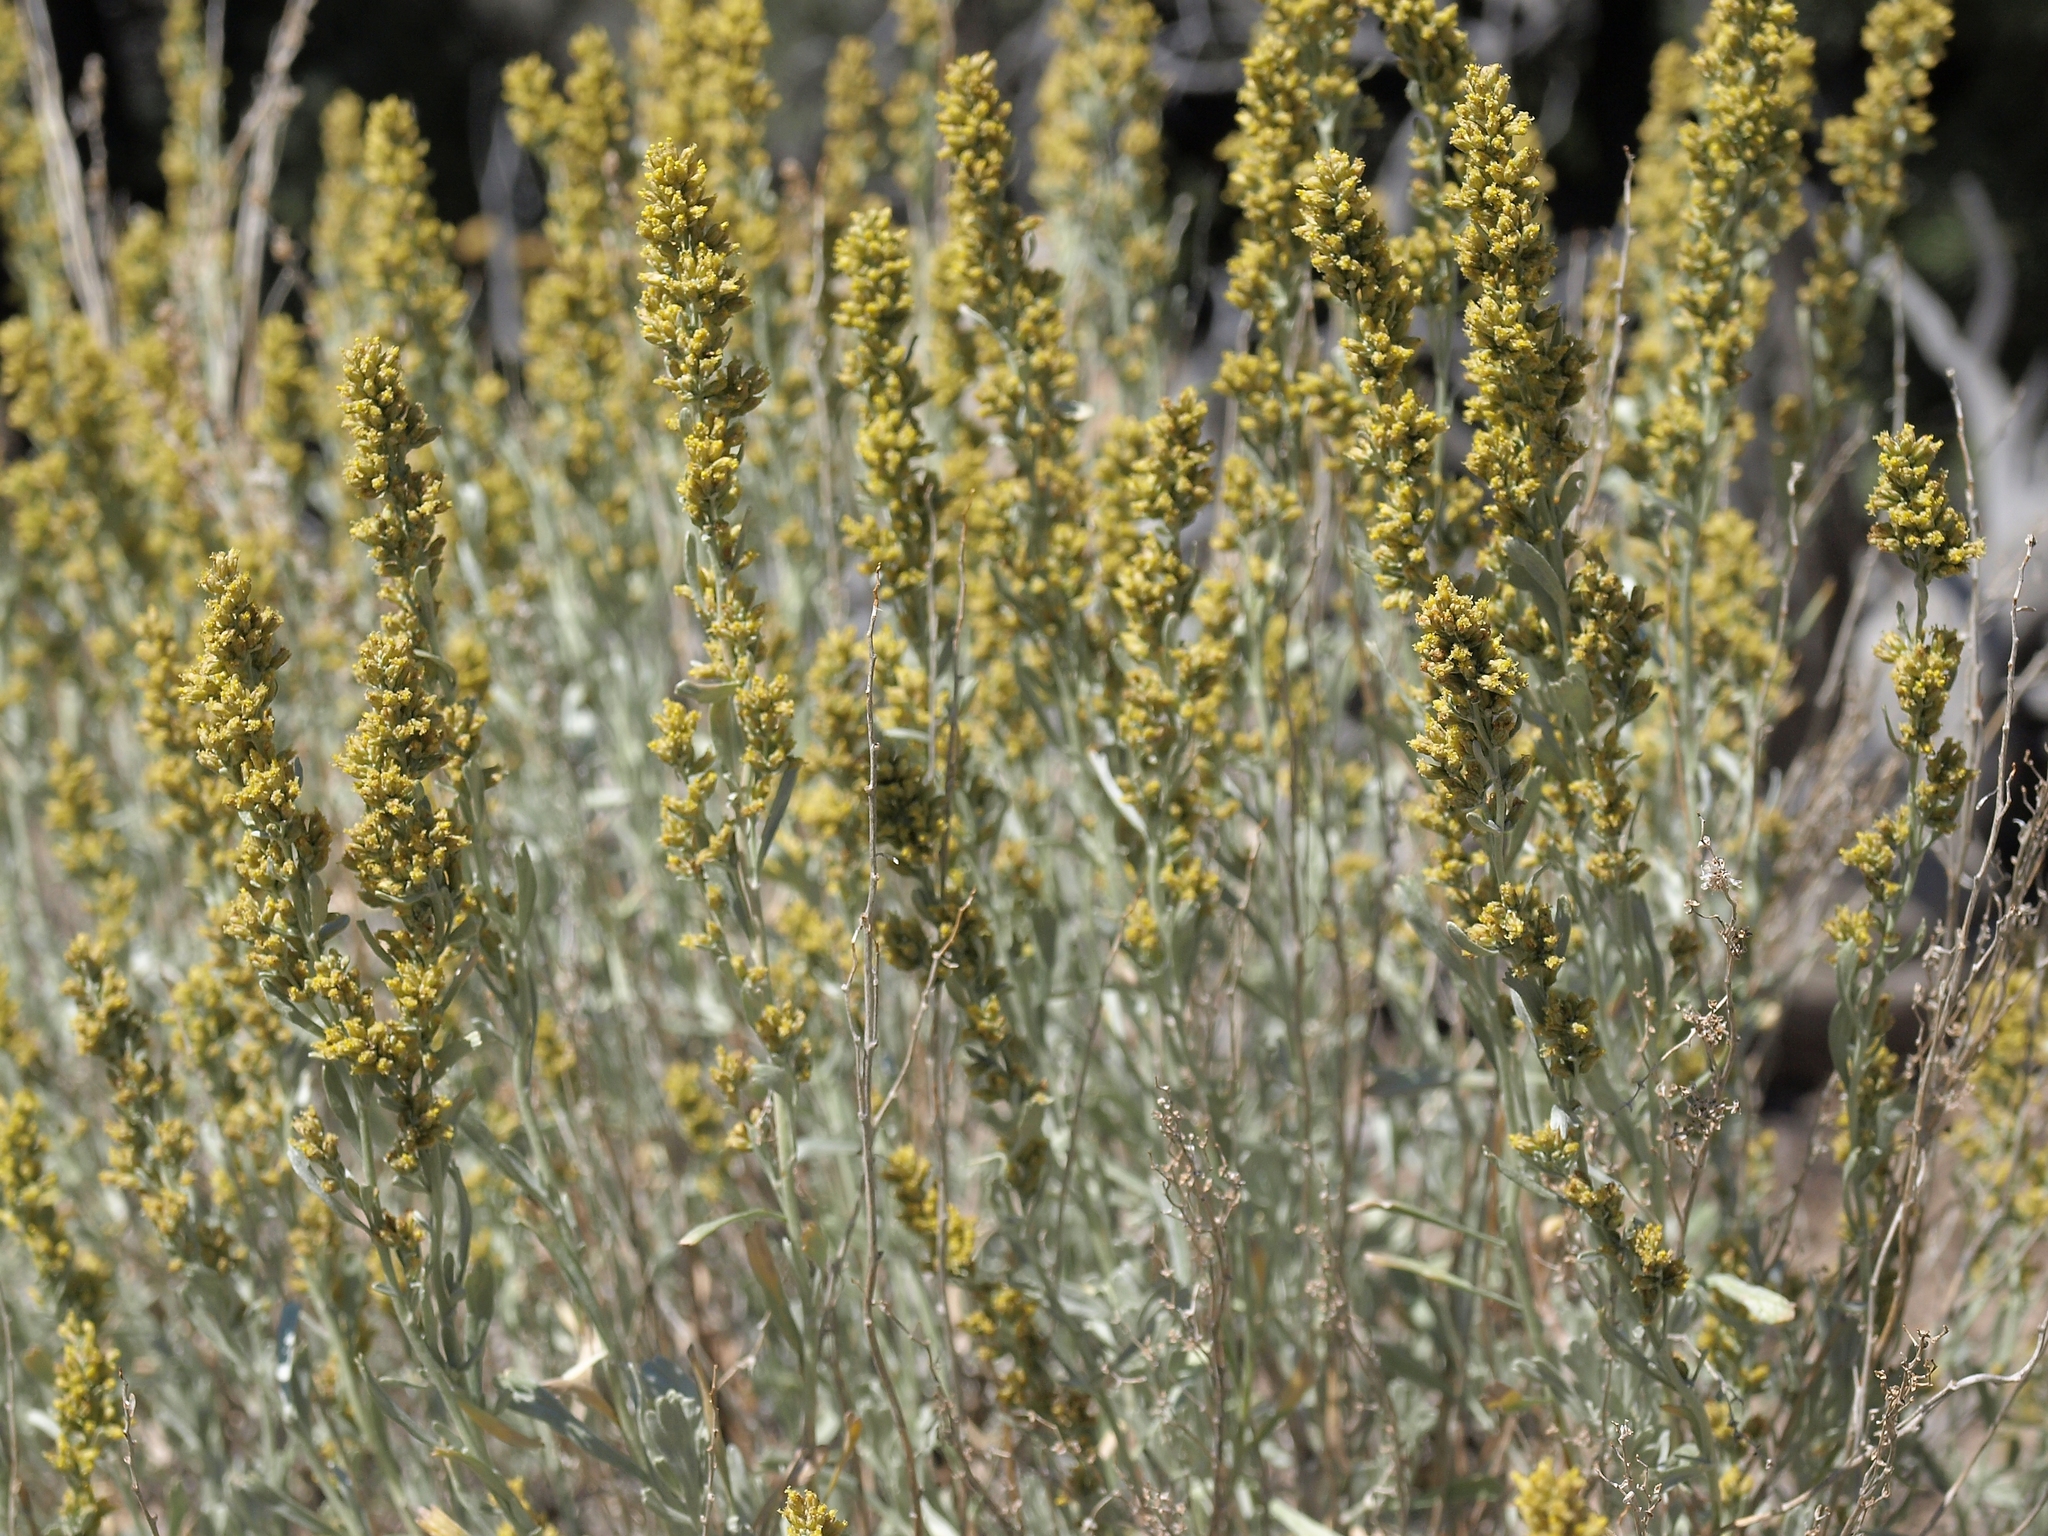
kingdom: Plantae
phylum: Tracheophyta
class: Magnoliopsida
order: Asterales
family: Asteraceae
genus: Artemisia
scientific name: Artemisia tridentata
